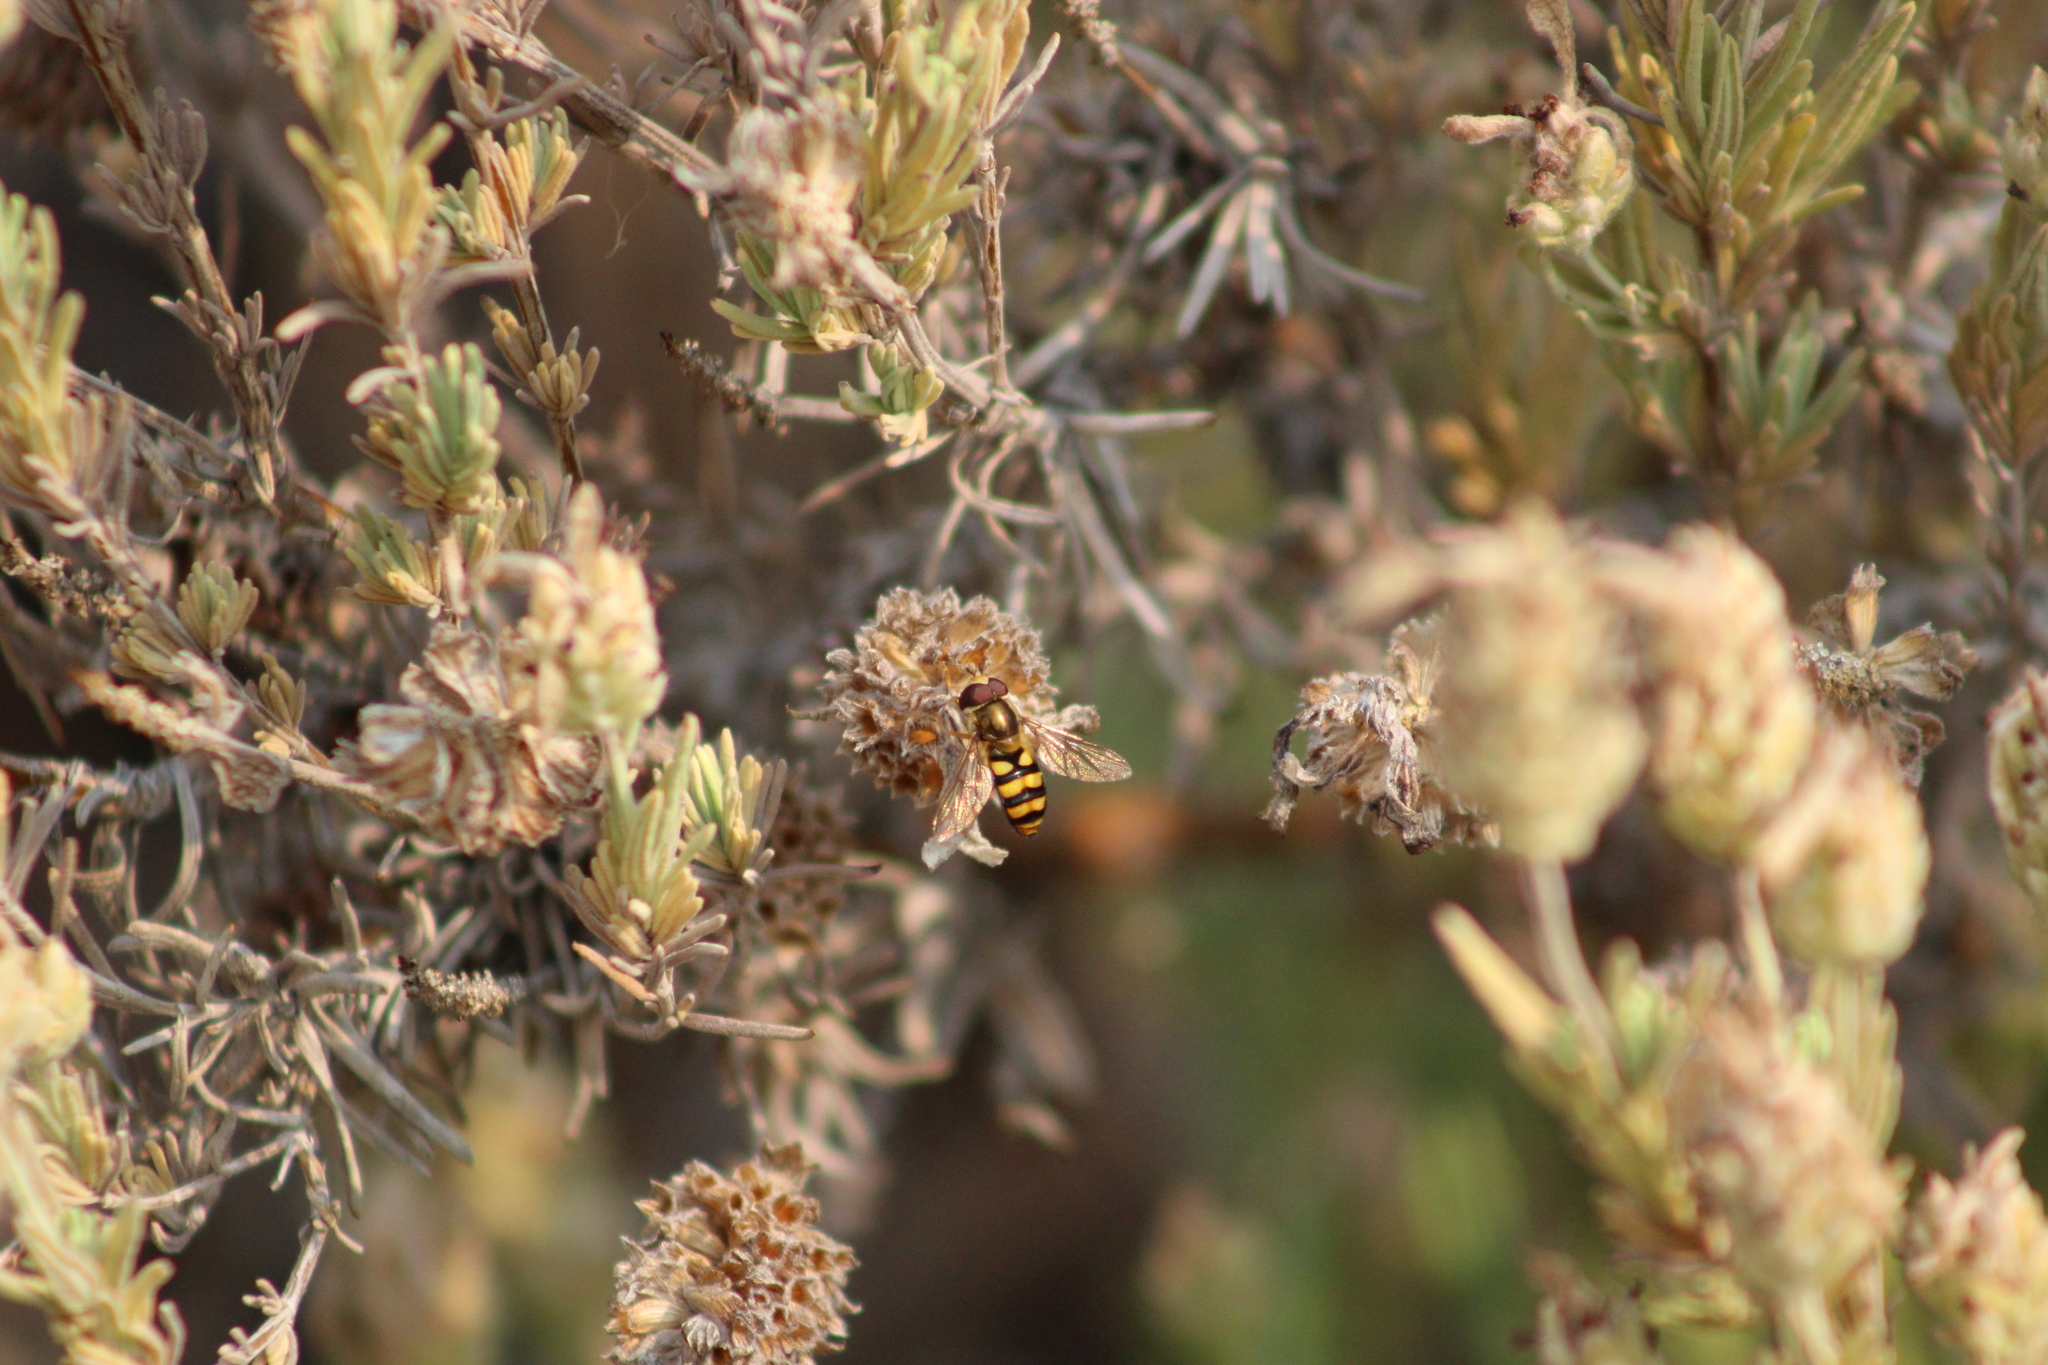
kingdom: Animalia
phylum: Arthropoda
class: Insecta
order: Diptera
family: Syrphidae
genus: Eupeodes
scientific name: Eupeodes fumipennis
